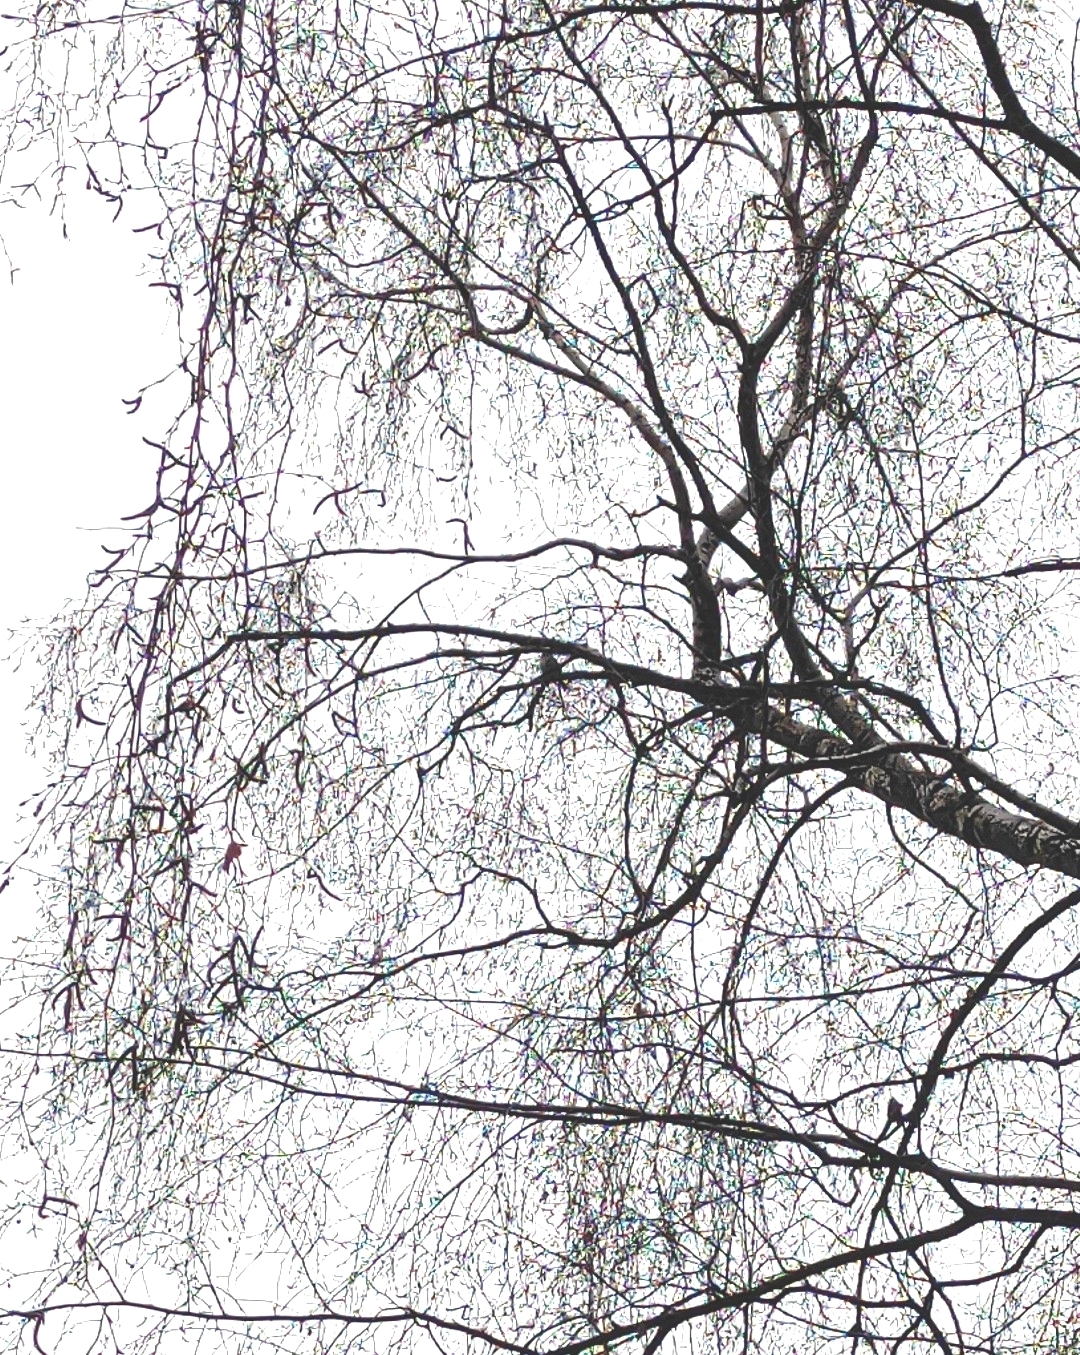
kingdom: Animalia
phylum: Chordata
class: Aves
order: Passeriformes
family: Turdidae
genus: Turdus
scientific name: Turdus philomelos
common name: Song thrush
